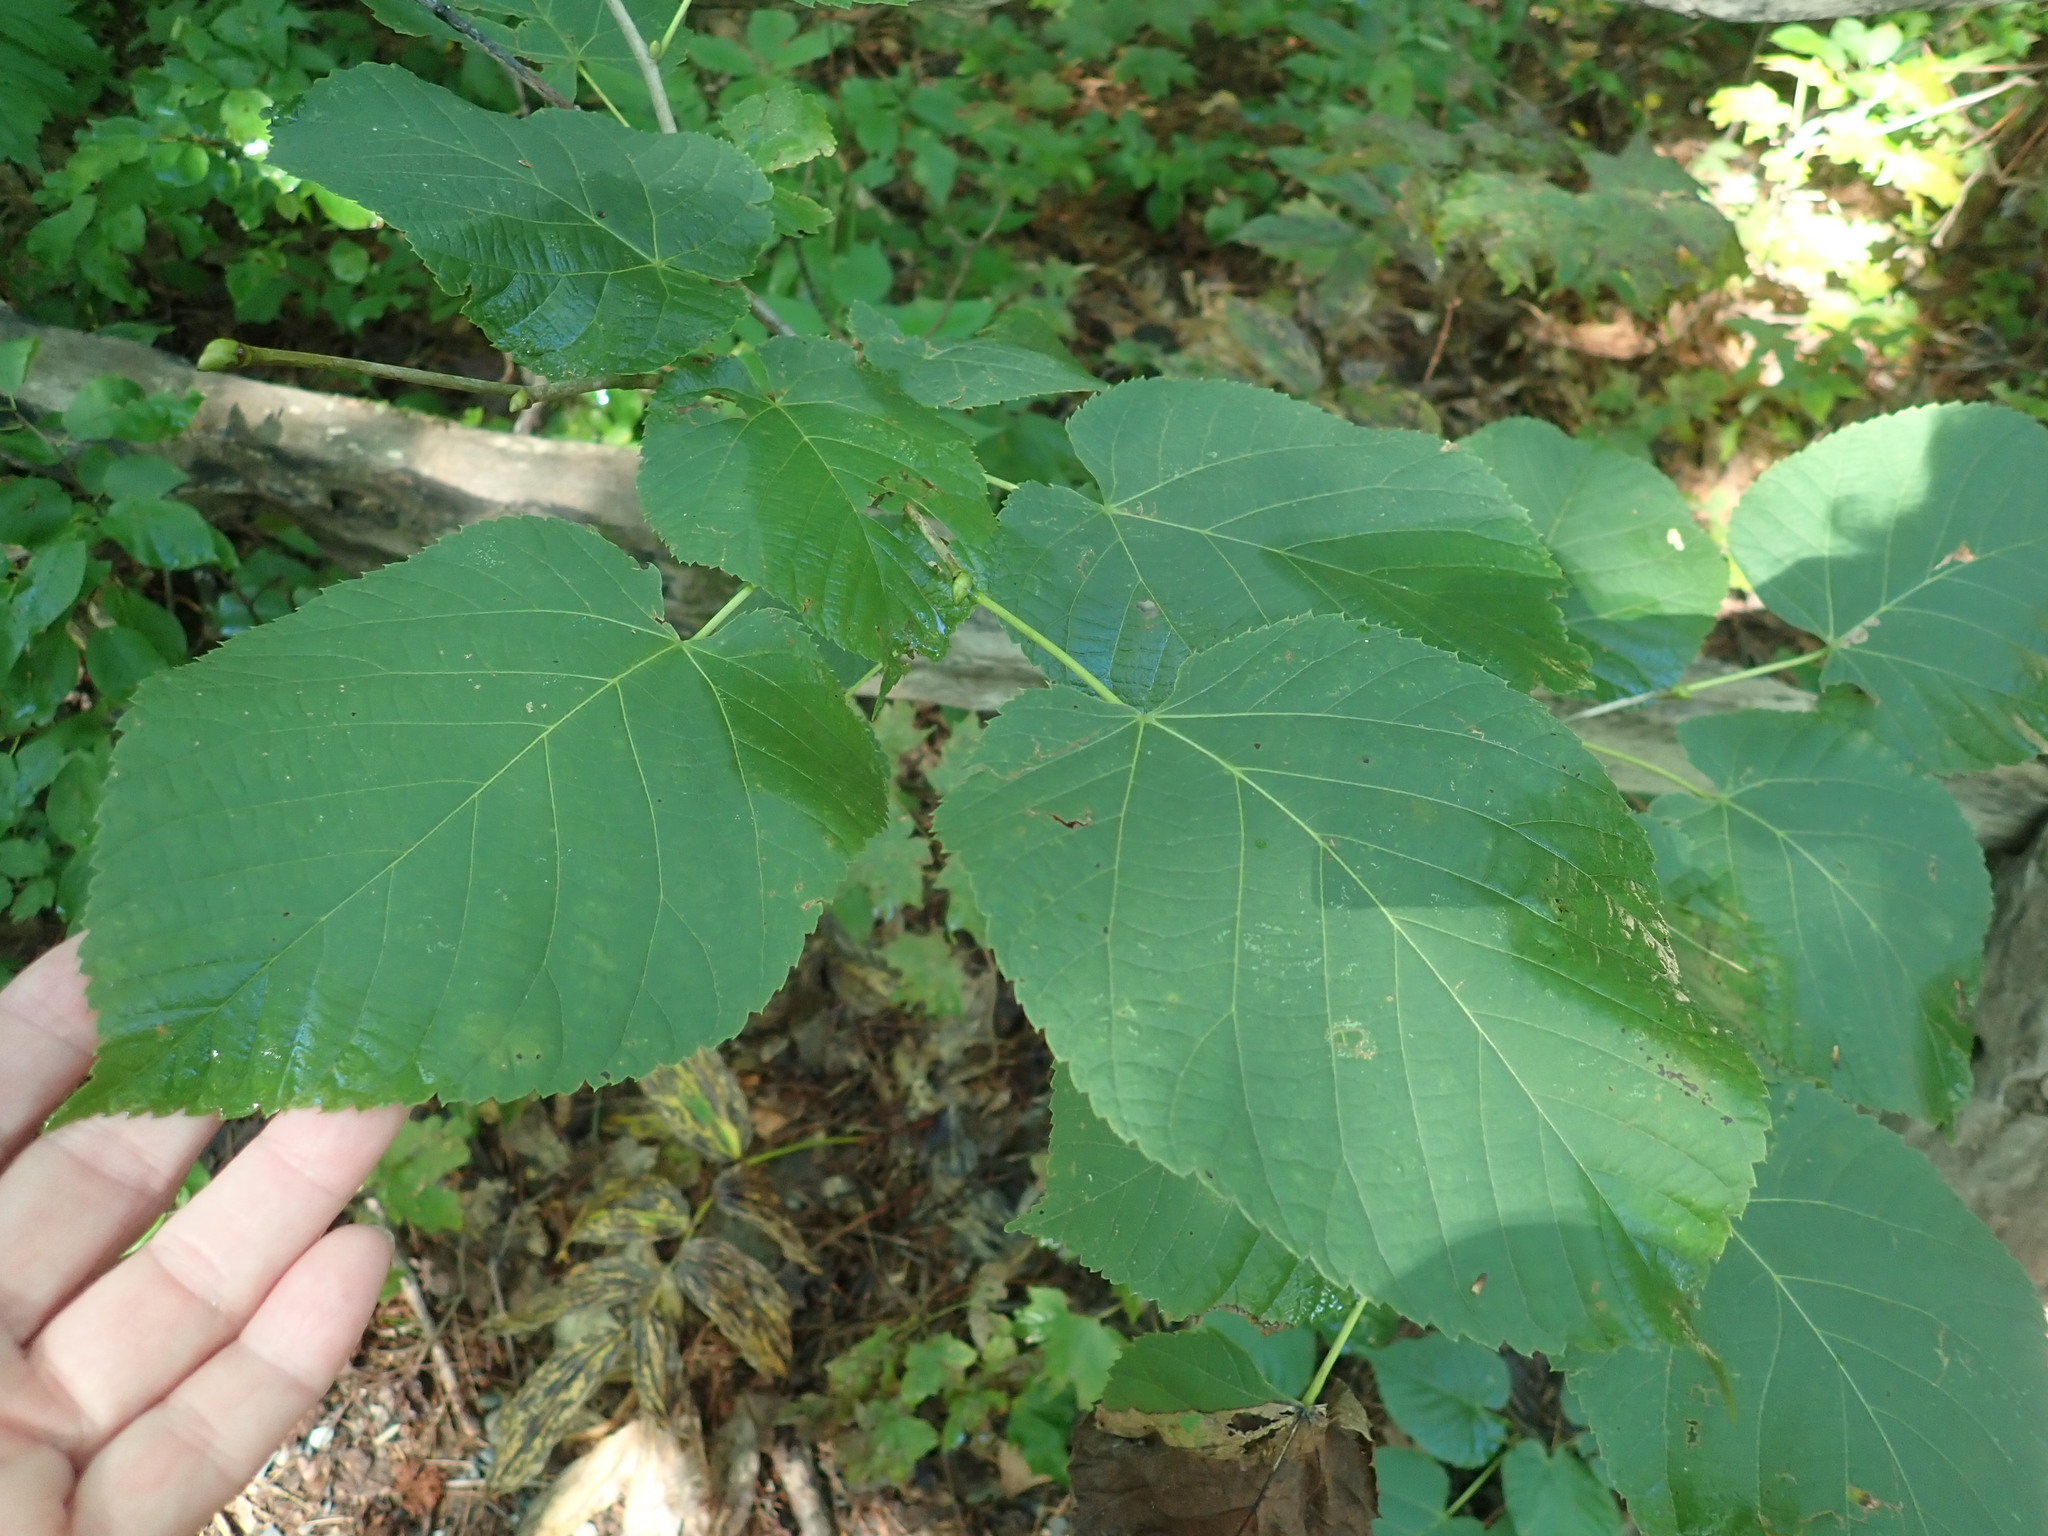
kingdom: Plantae
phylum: Tracheophyta
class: Magnoliopsida
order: Malvales
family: Malvaceae
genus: Tilia
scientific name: Tilia americana
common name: Basswood
